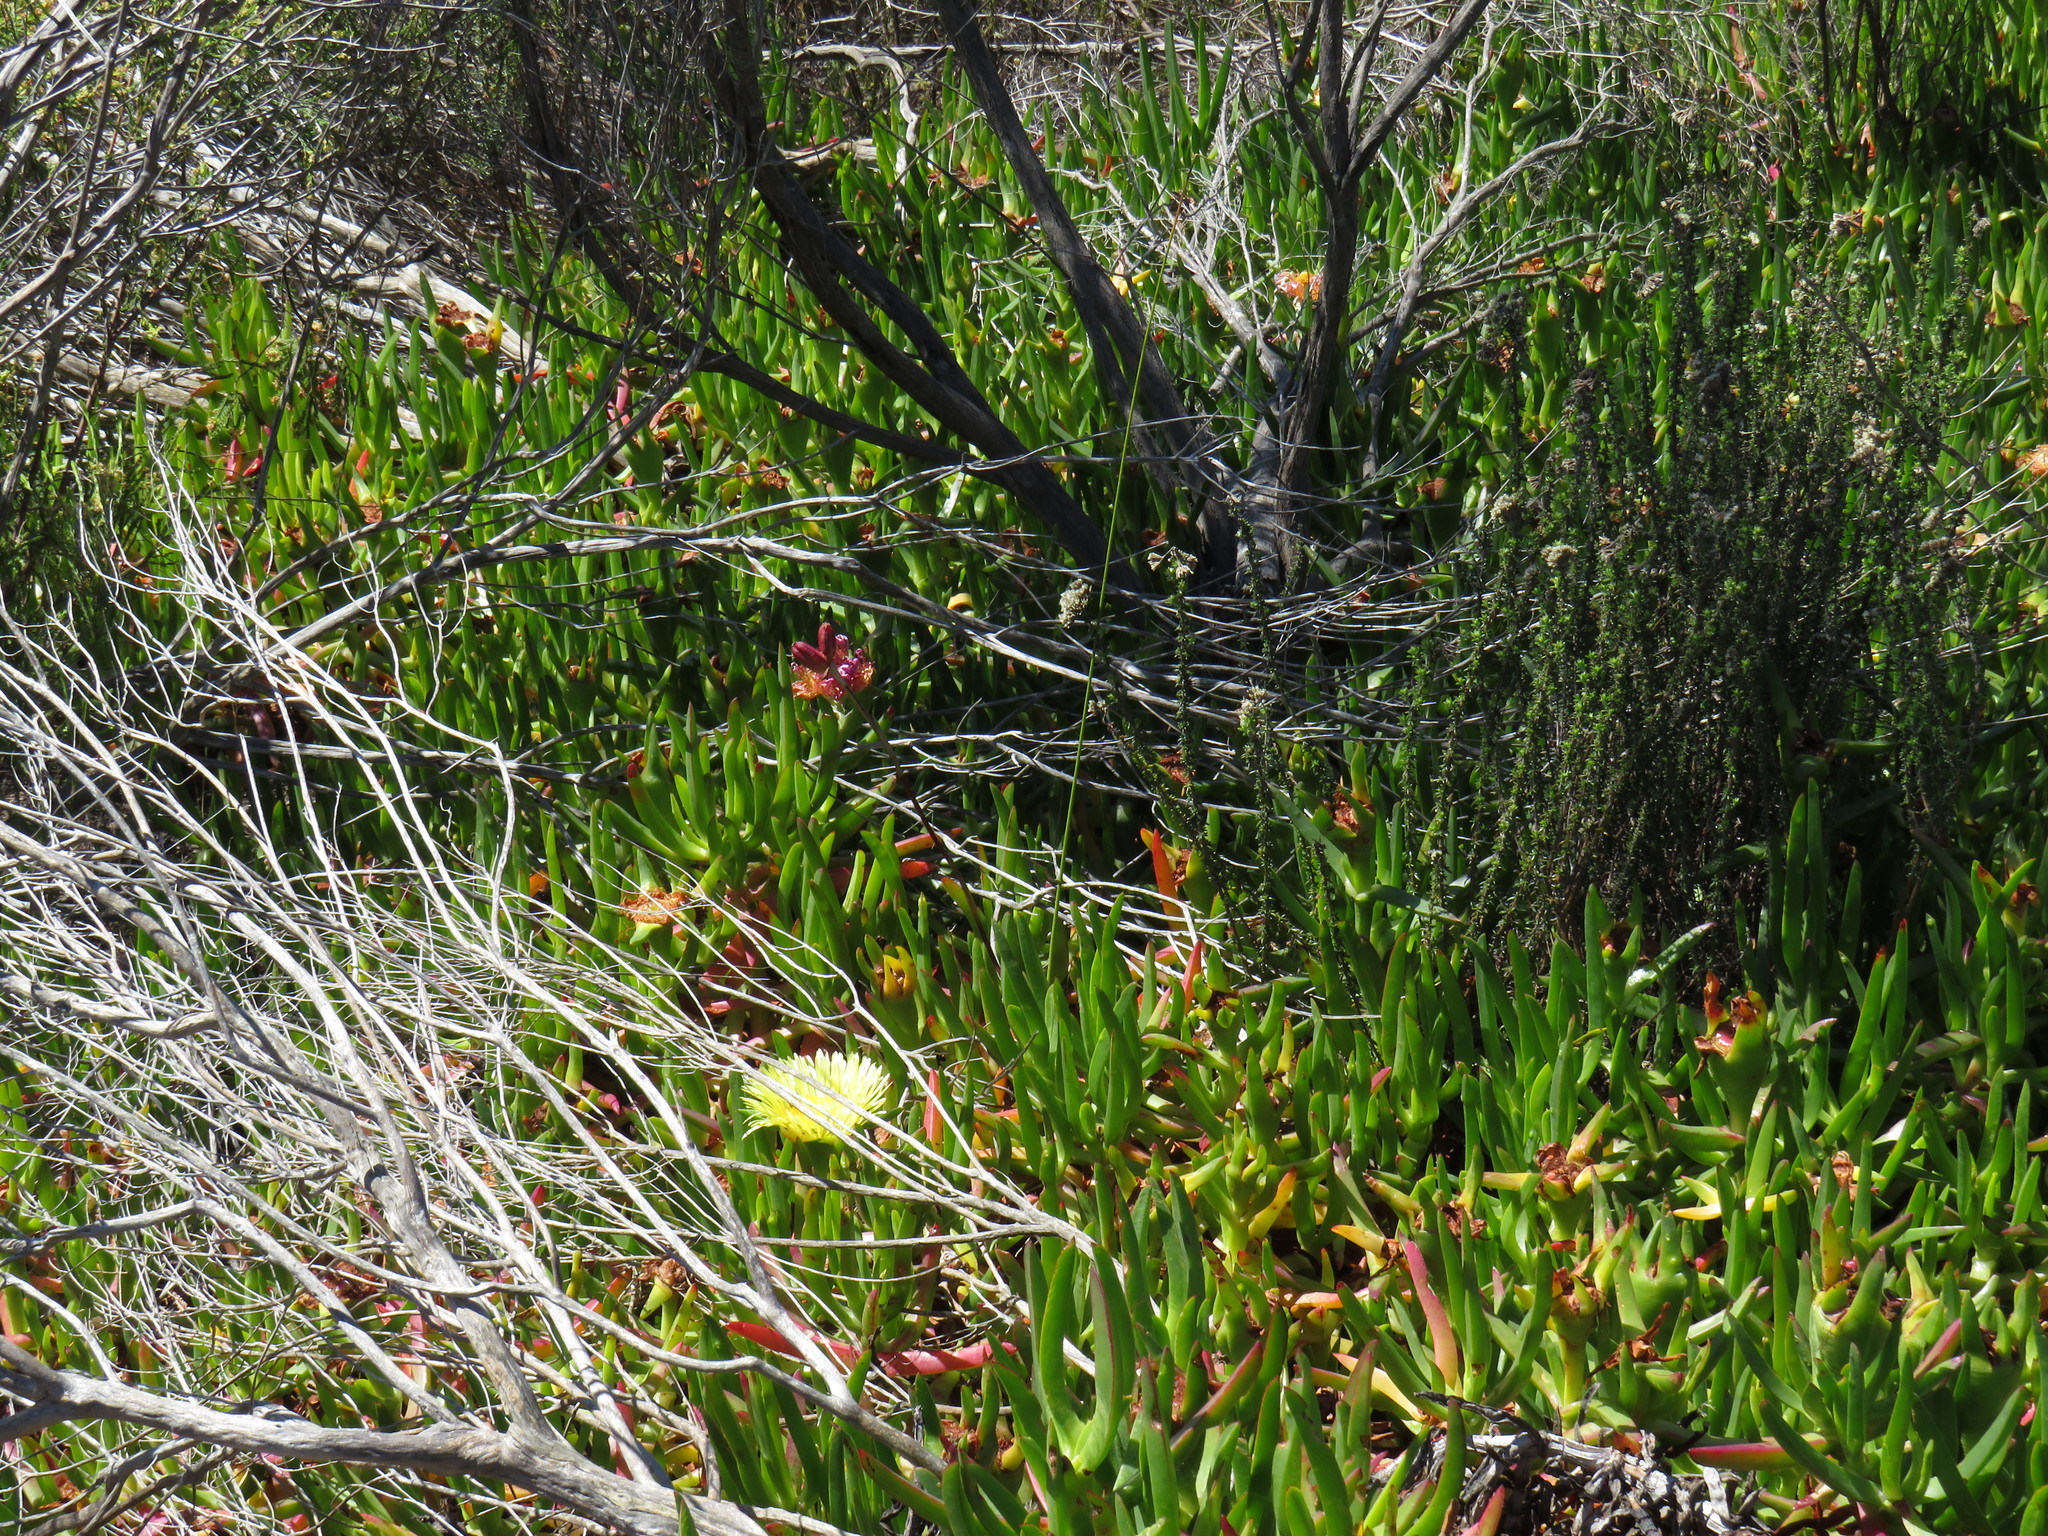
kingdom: Plantae
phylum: Tracheophyta
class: Magnoliopsida
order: Caryophyllales
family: Aizoaceae
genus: Carpobrotus
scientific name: Carpobrotus edulis
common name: Hottentot-fig
